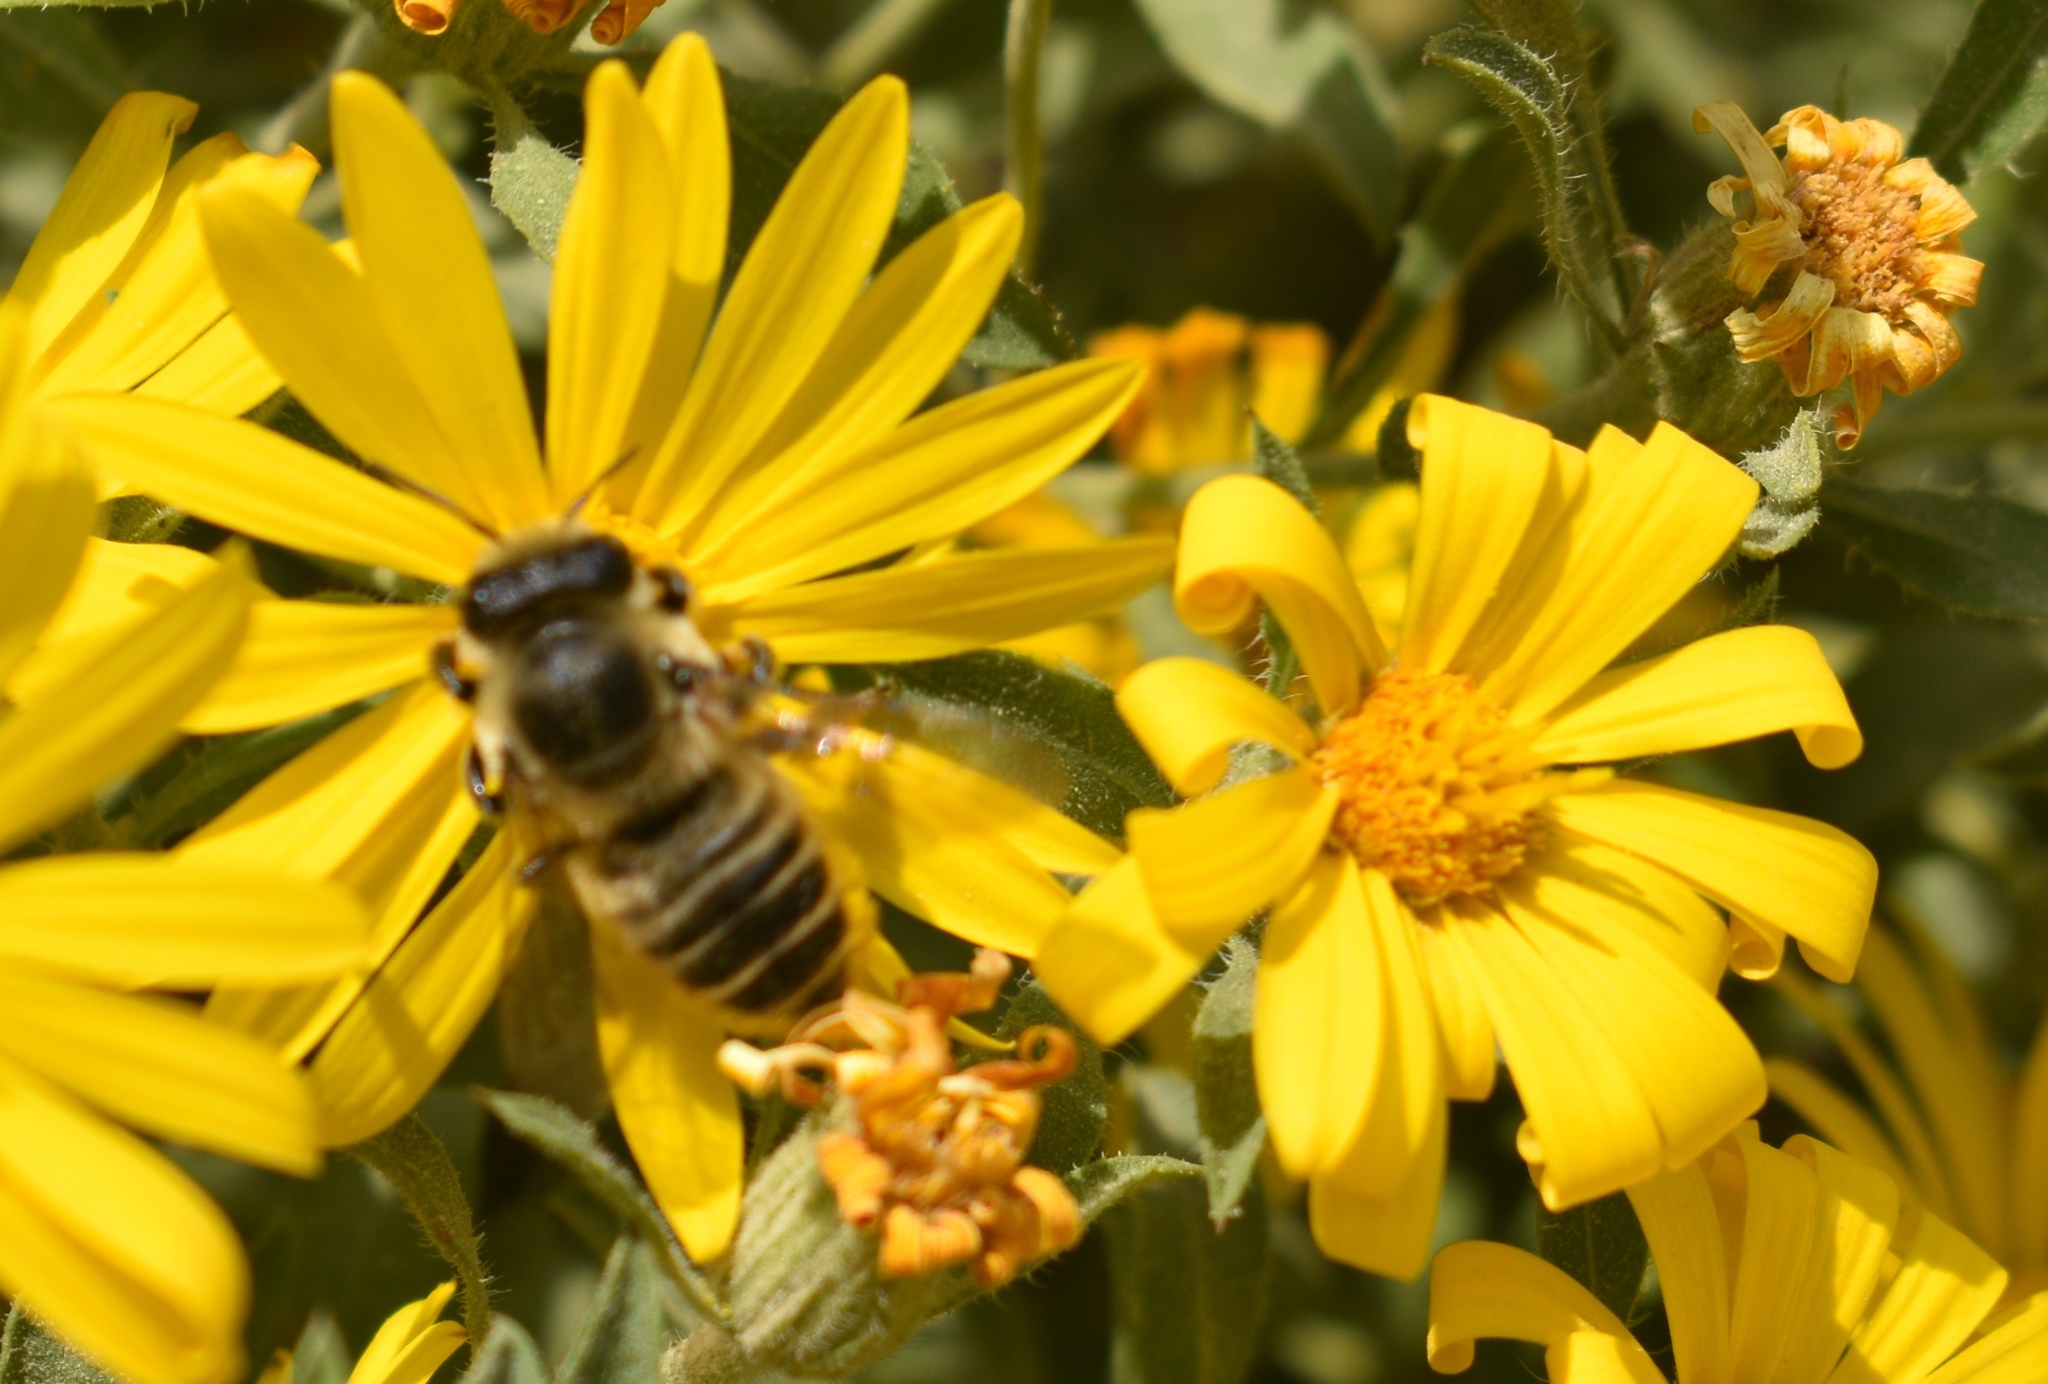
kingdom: Animalia
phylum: Arthropoda
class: Insecta
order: Hymenoptera
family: Megachilidae
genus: Xanthosarus
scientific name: Xanthosarus
